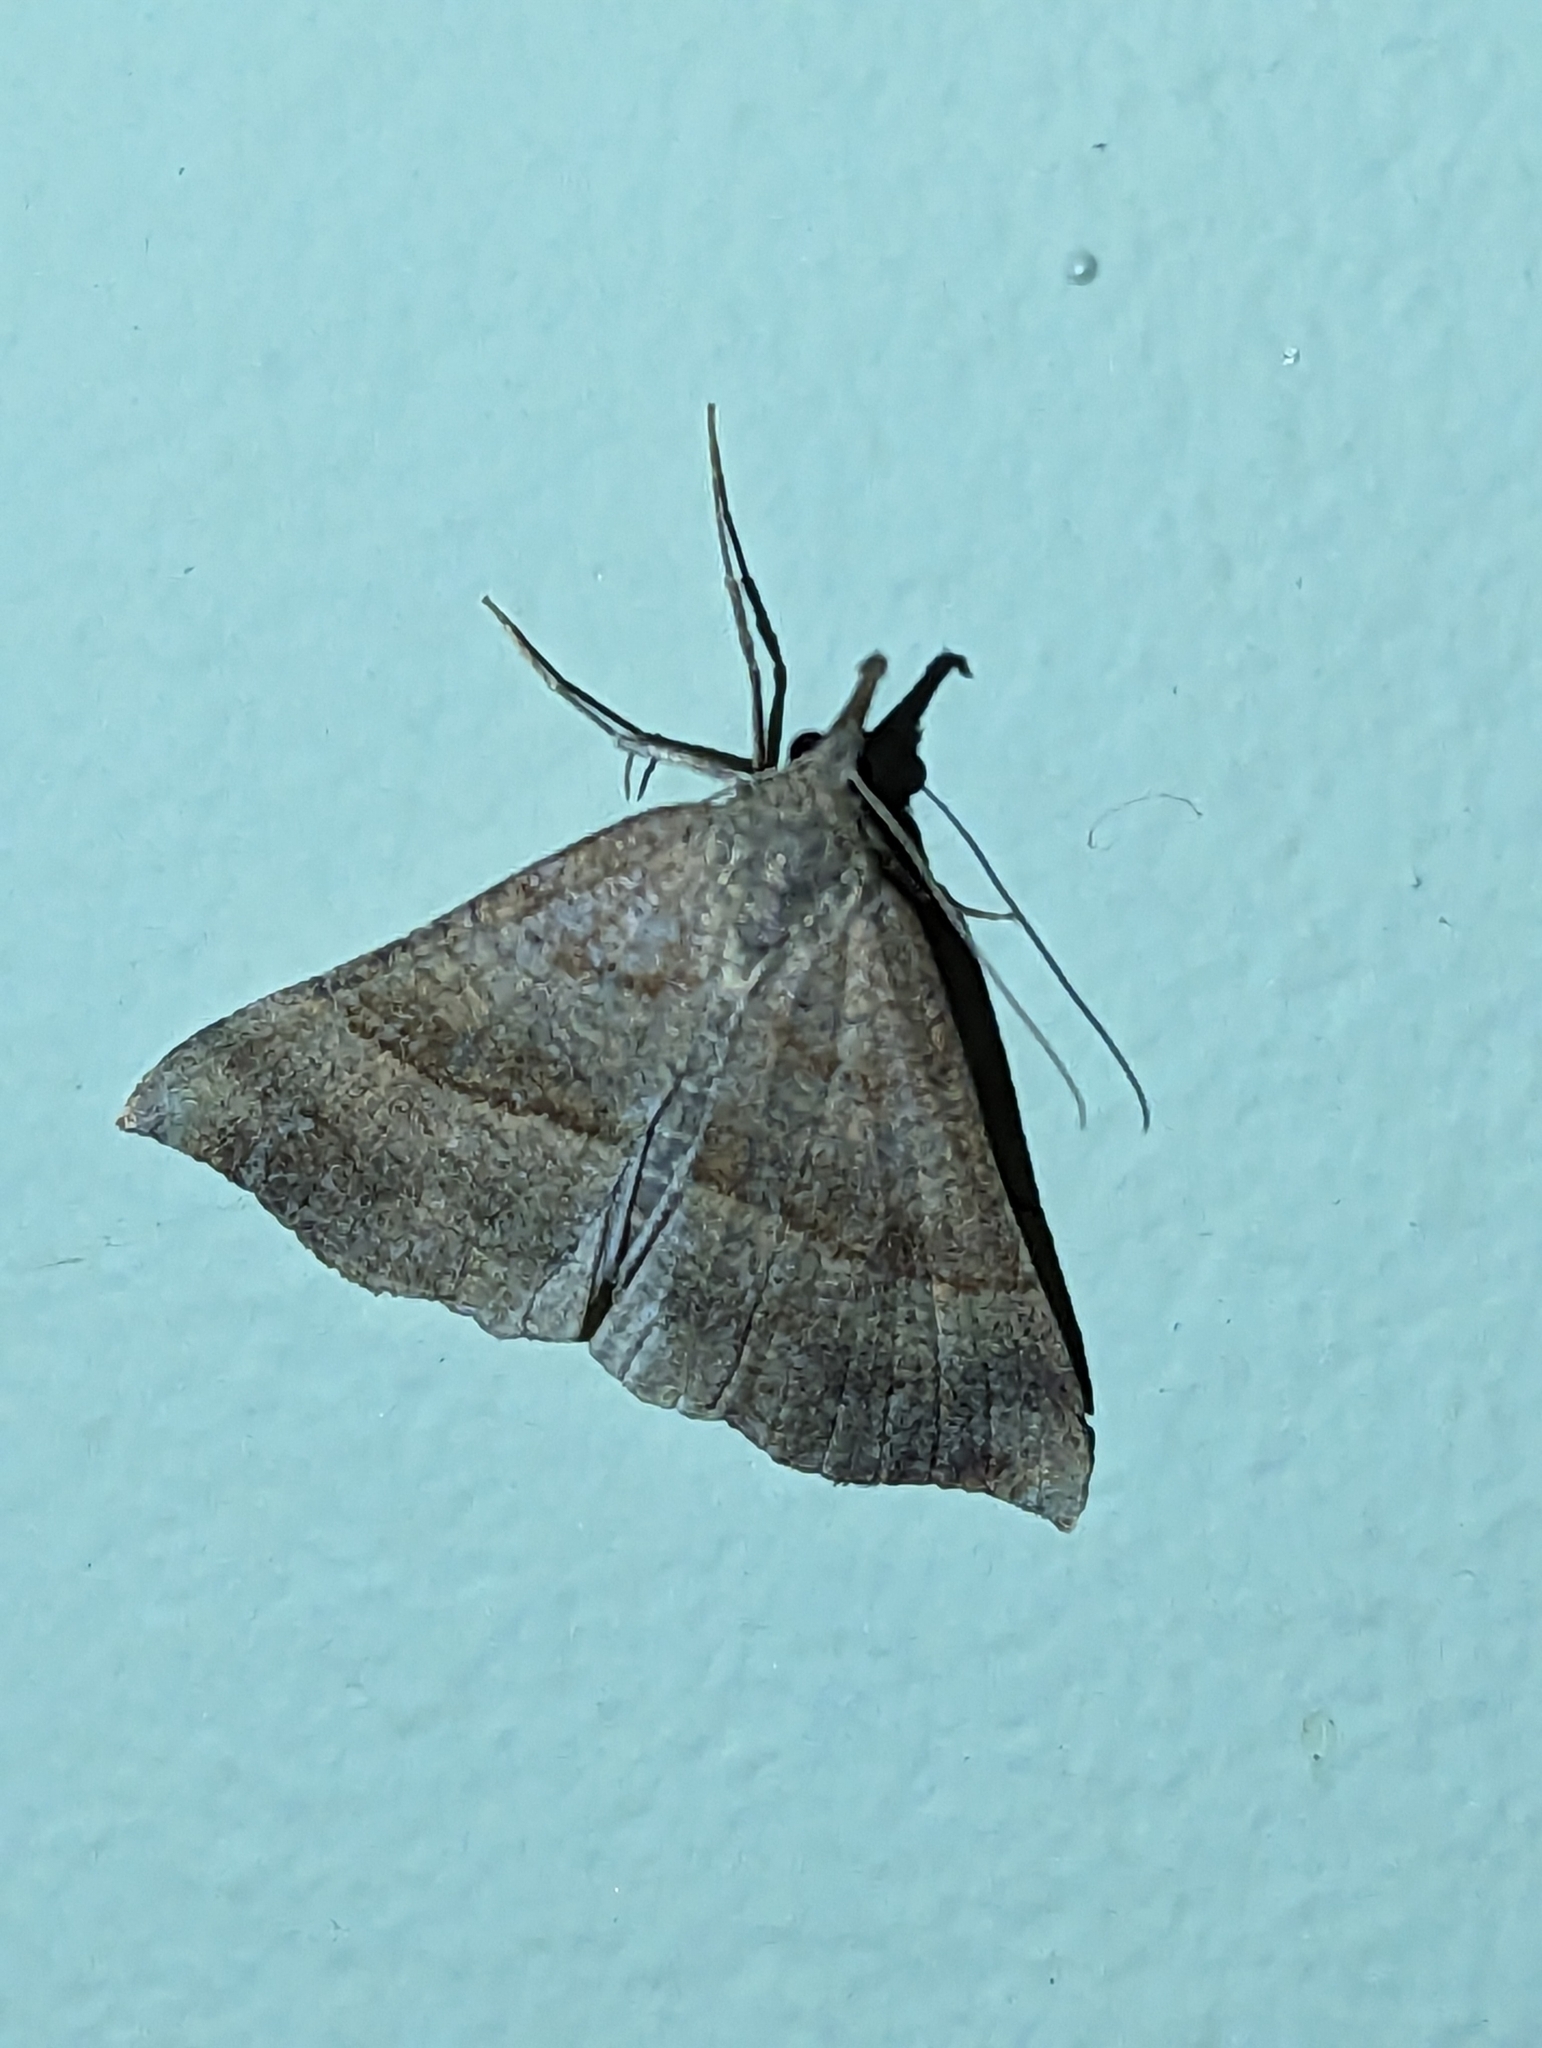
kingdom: Animalia
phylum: Arthropoda
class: Insecta
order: Lepidoptera
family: Erebidae
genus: Hypena
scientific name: Hypena proboscidalis
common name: Snout
